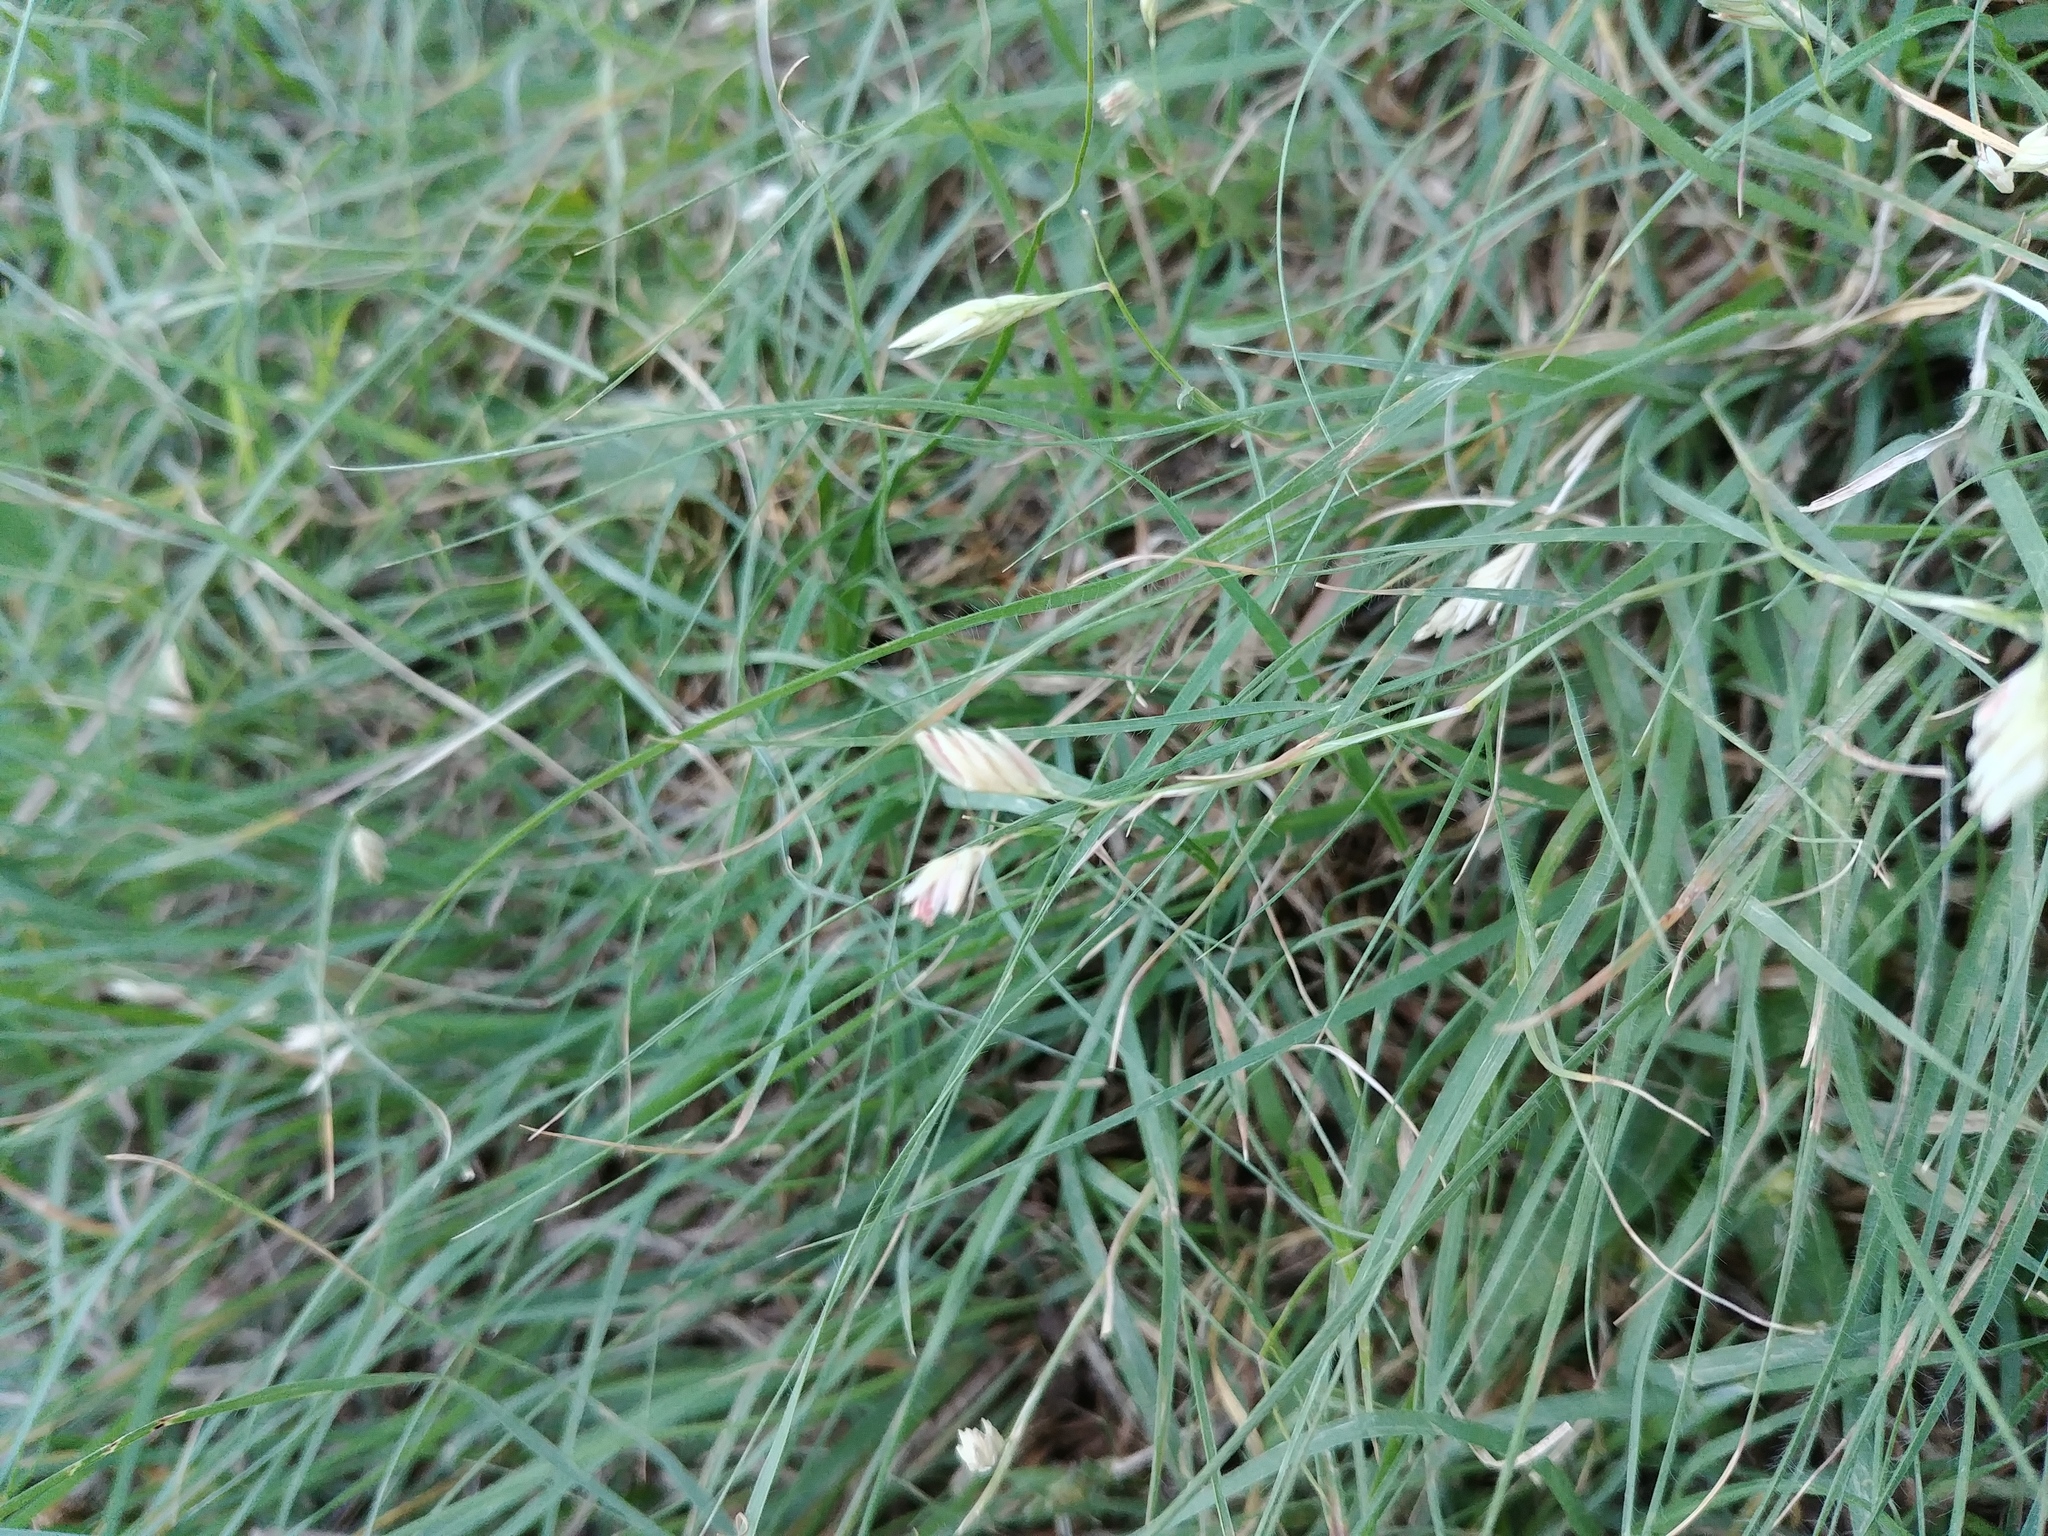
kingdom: Plantae
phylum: Tracheophyta
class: Liliopsida
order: Poales
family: Poaceae
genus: Bouteloua
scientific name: Bouteloua dactyloides
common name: Buffalo grass
